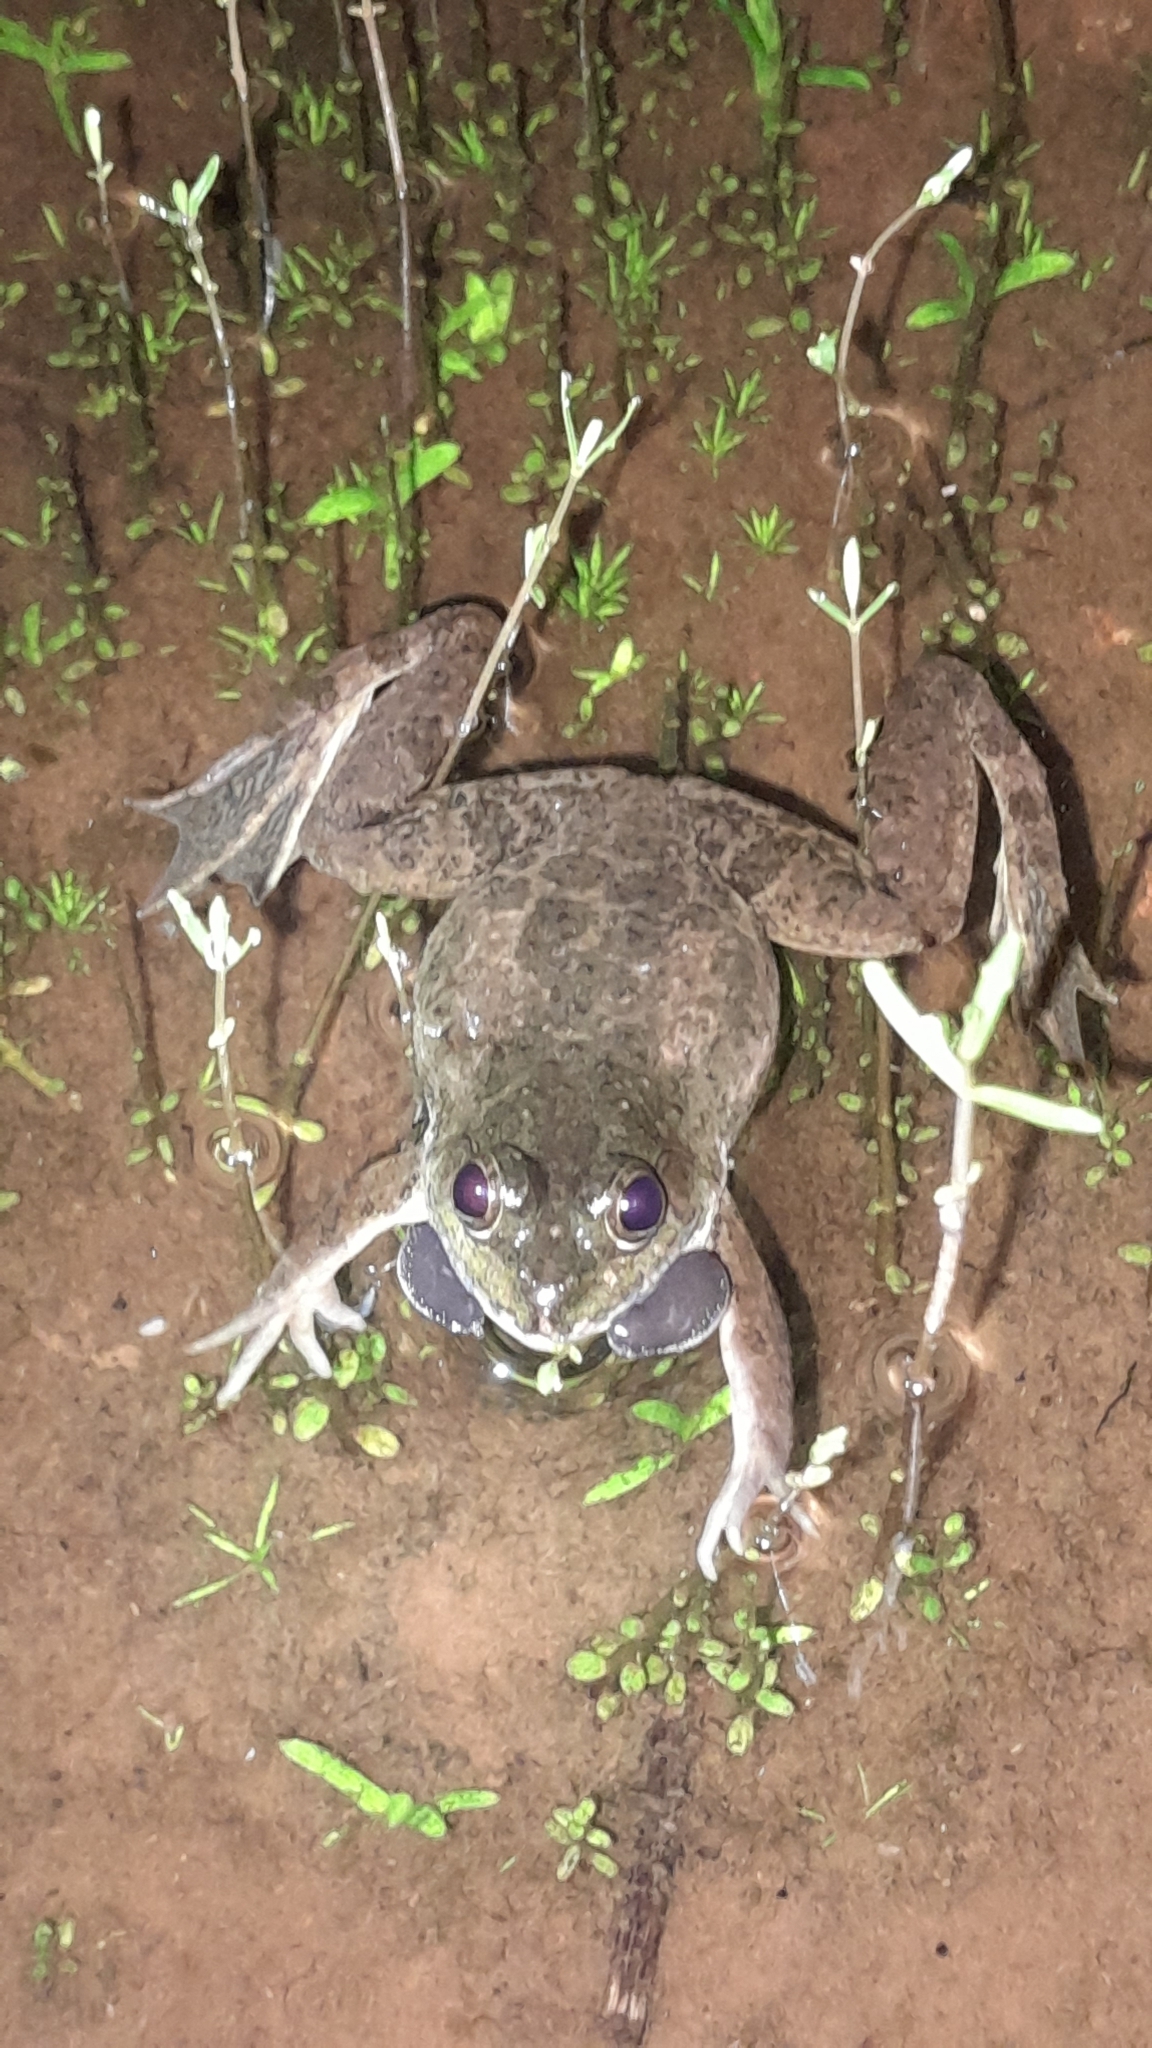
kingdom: Animalia
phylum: Chordata
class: Amphibia
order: Anura
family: Dicroglossidae
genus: Euphlyctis
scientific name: Euphlyctis cyanophlyctis
